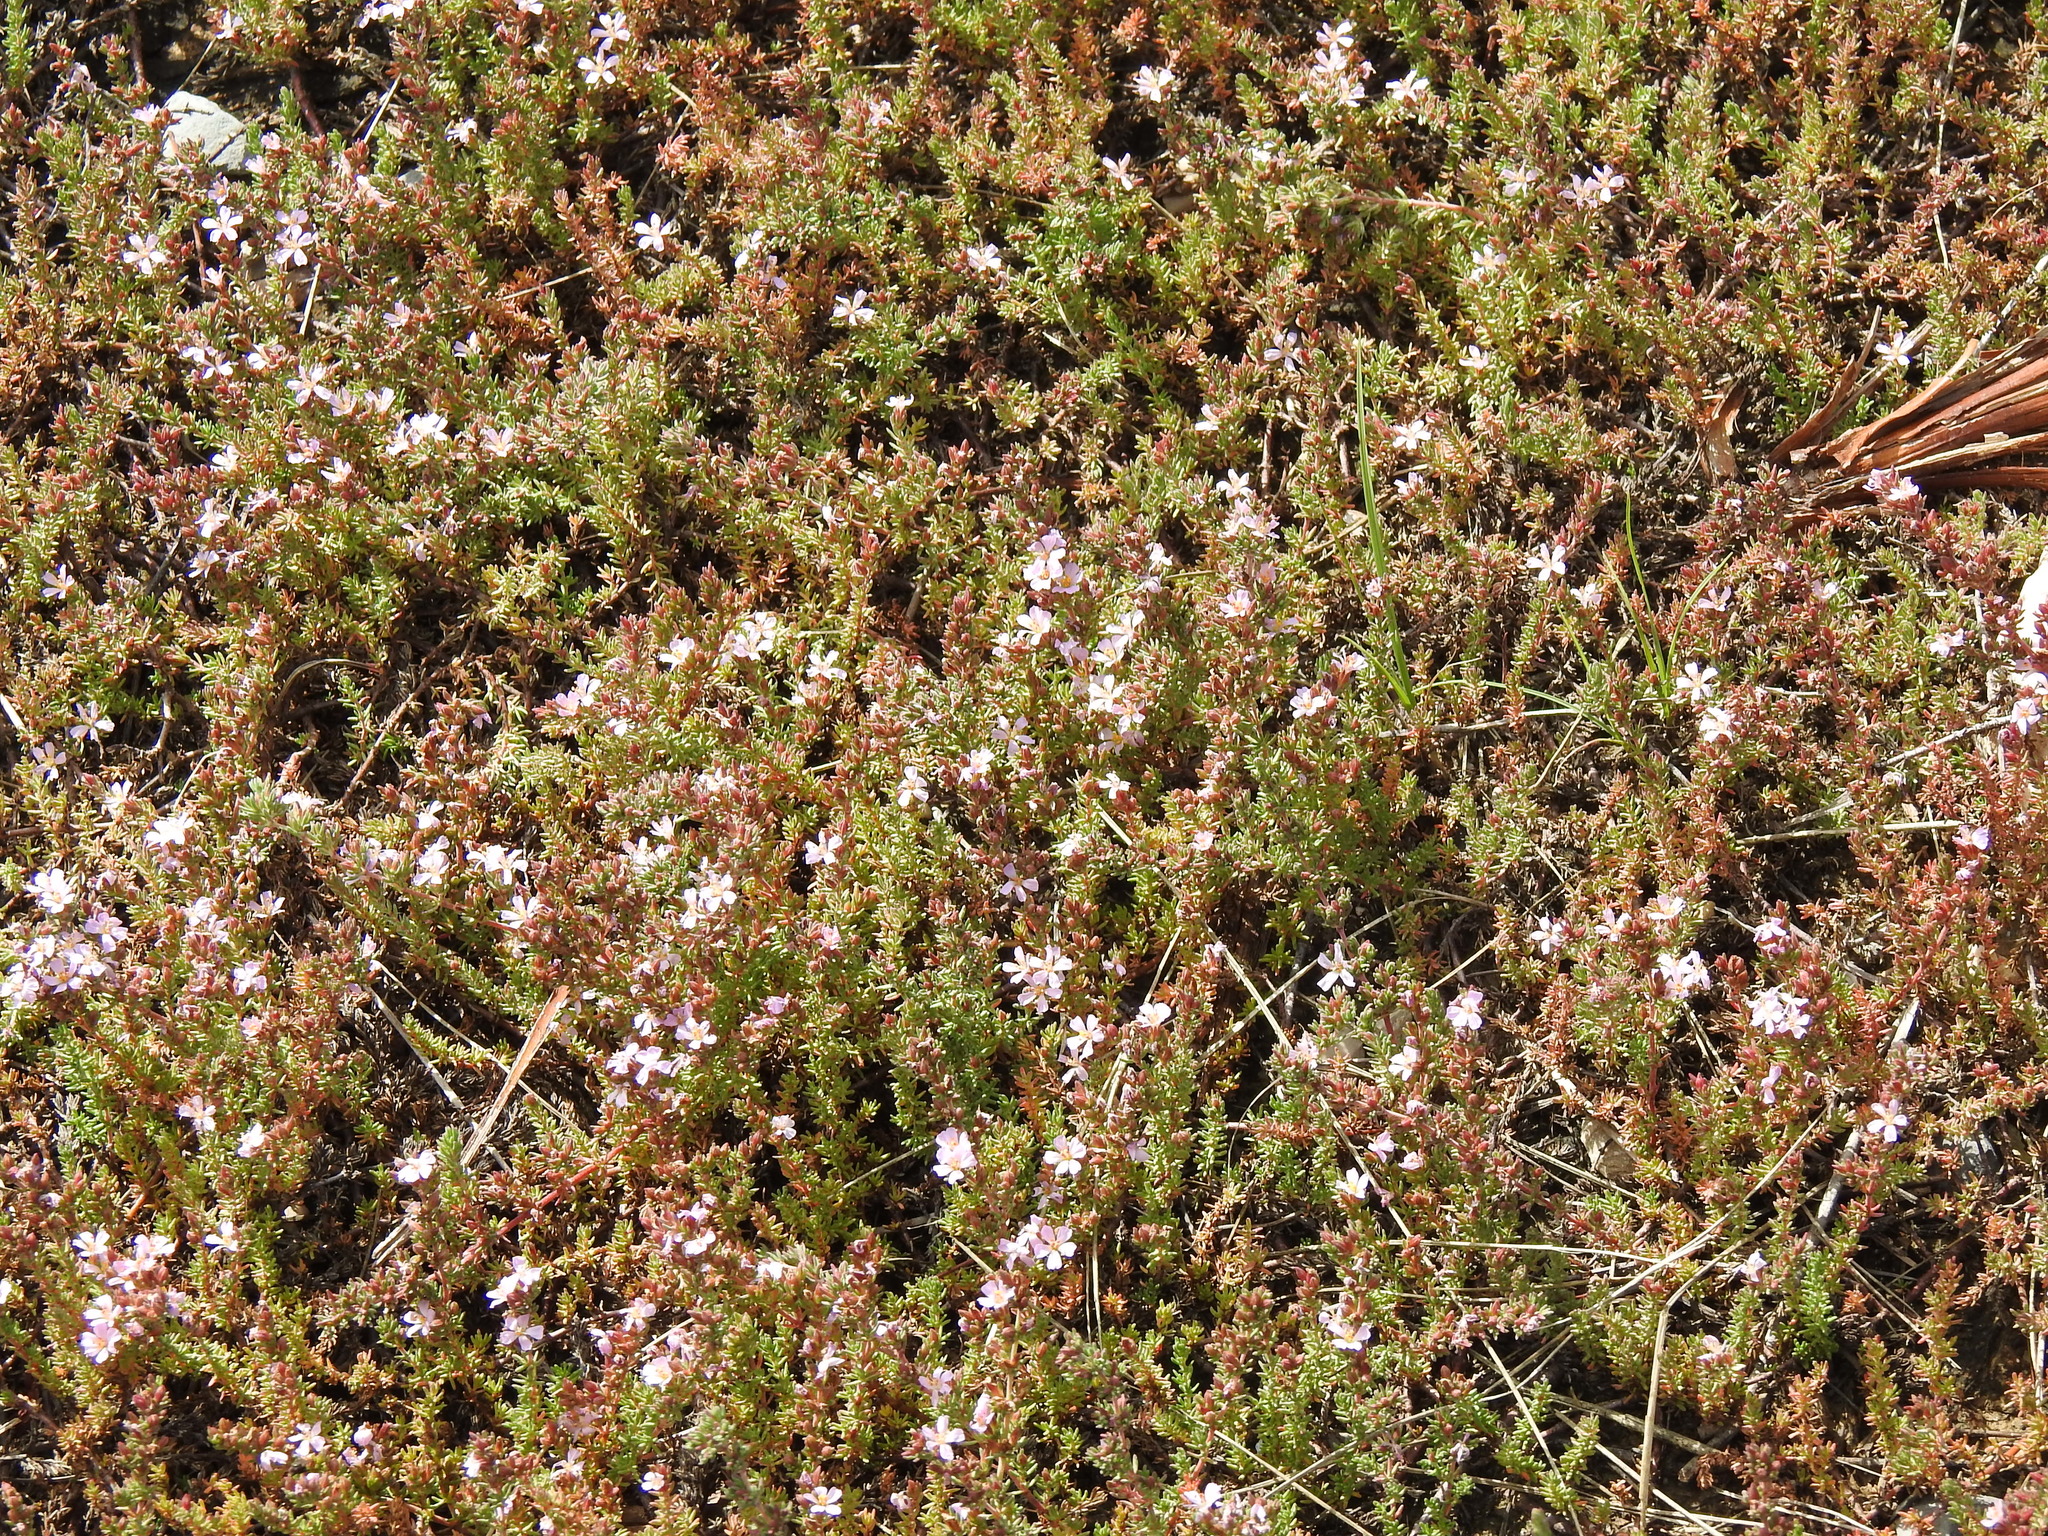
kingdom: Plantae
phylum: Tracheophyta
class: Magnoliopsida
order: Caryophyllales
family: Frankeniaceae
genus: Frankenia
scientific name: Frankenia laevis
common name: Sea-heath
